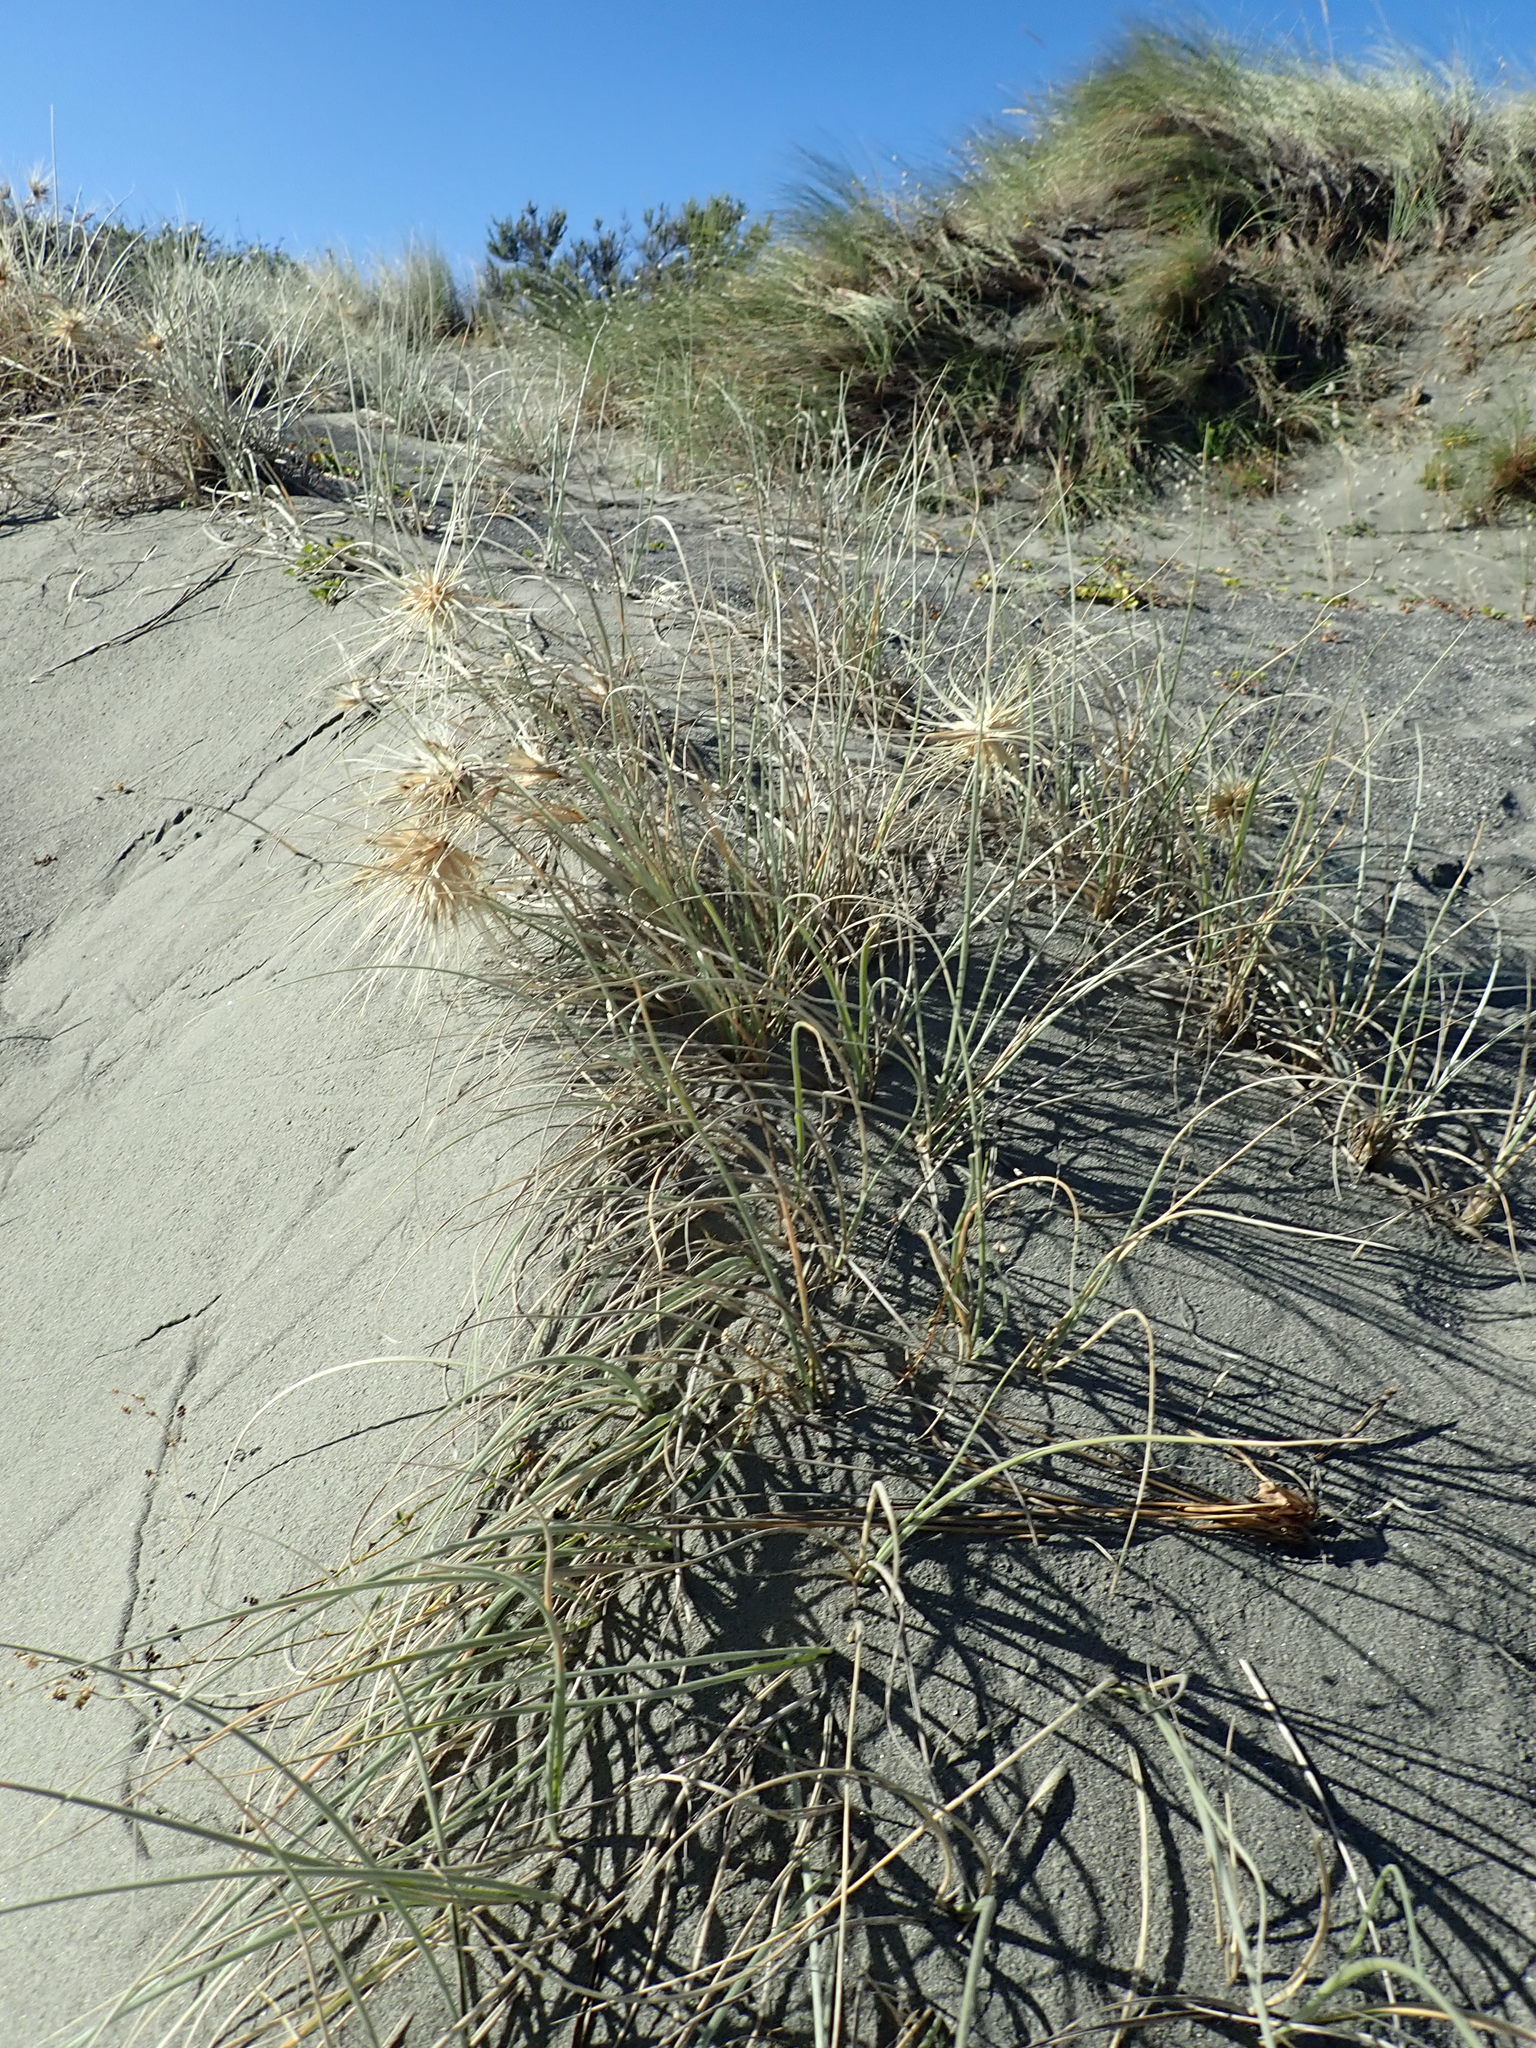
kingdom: Plantae
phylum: Tracheophyta
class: Liliopsida
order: Poales
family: Poaceae
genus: Spinifex
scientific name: Spinifex sericeus
